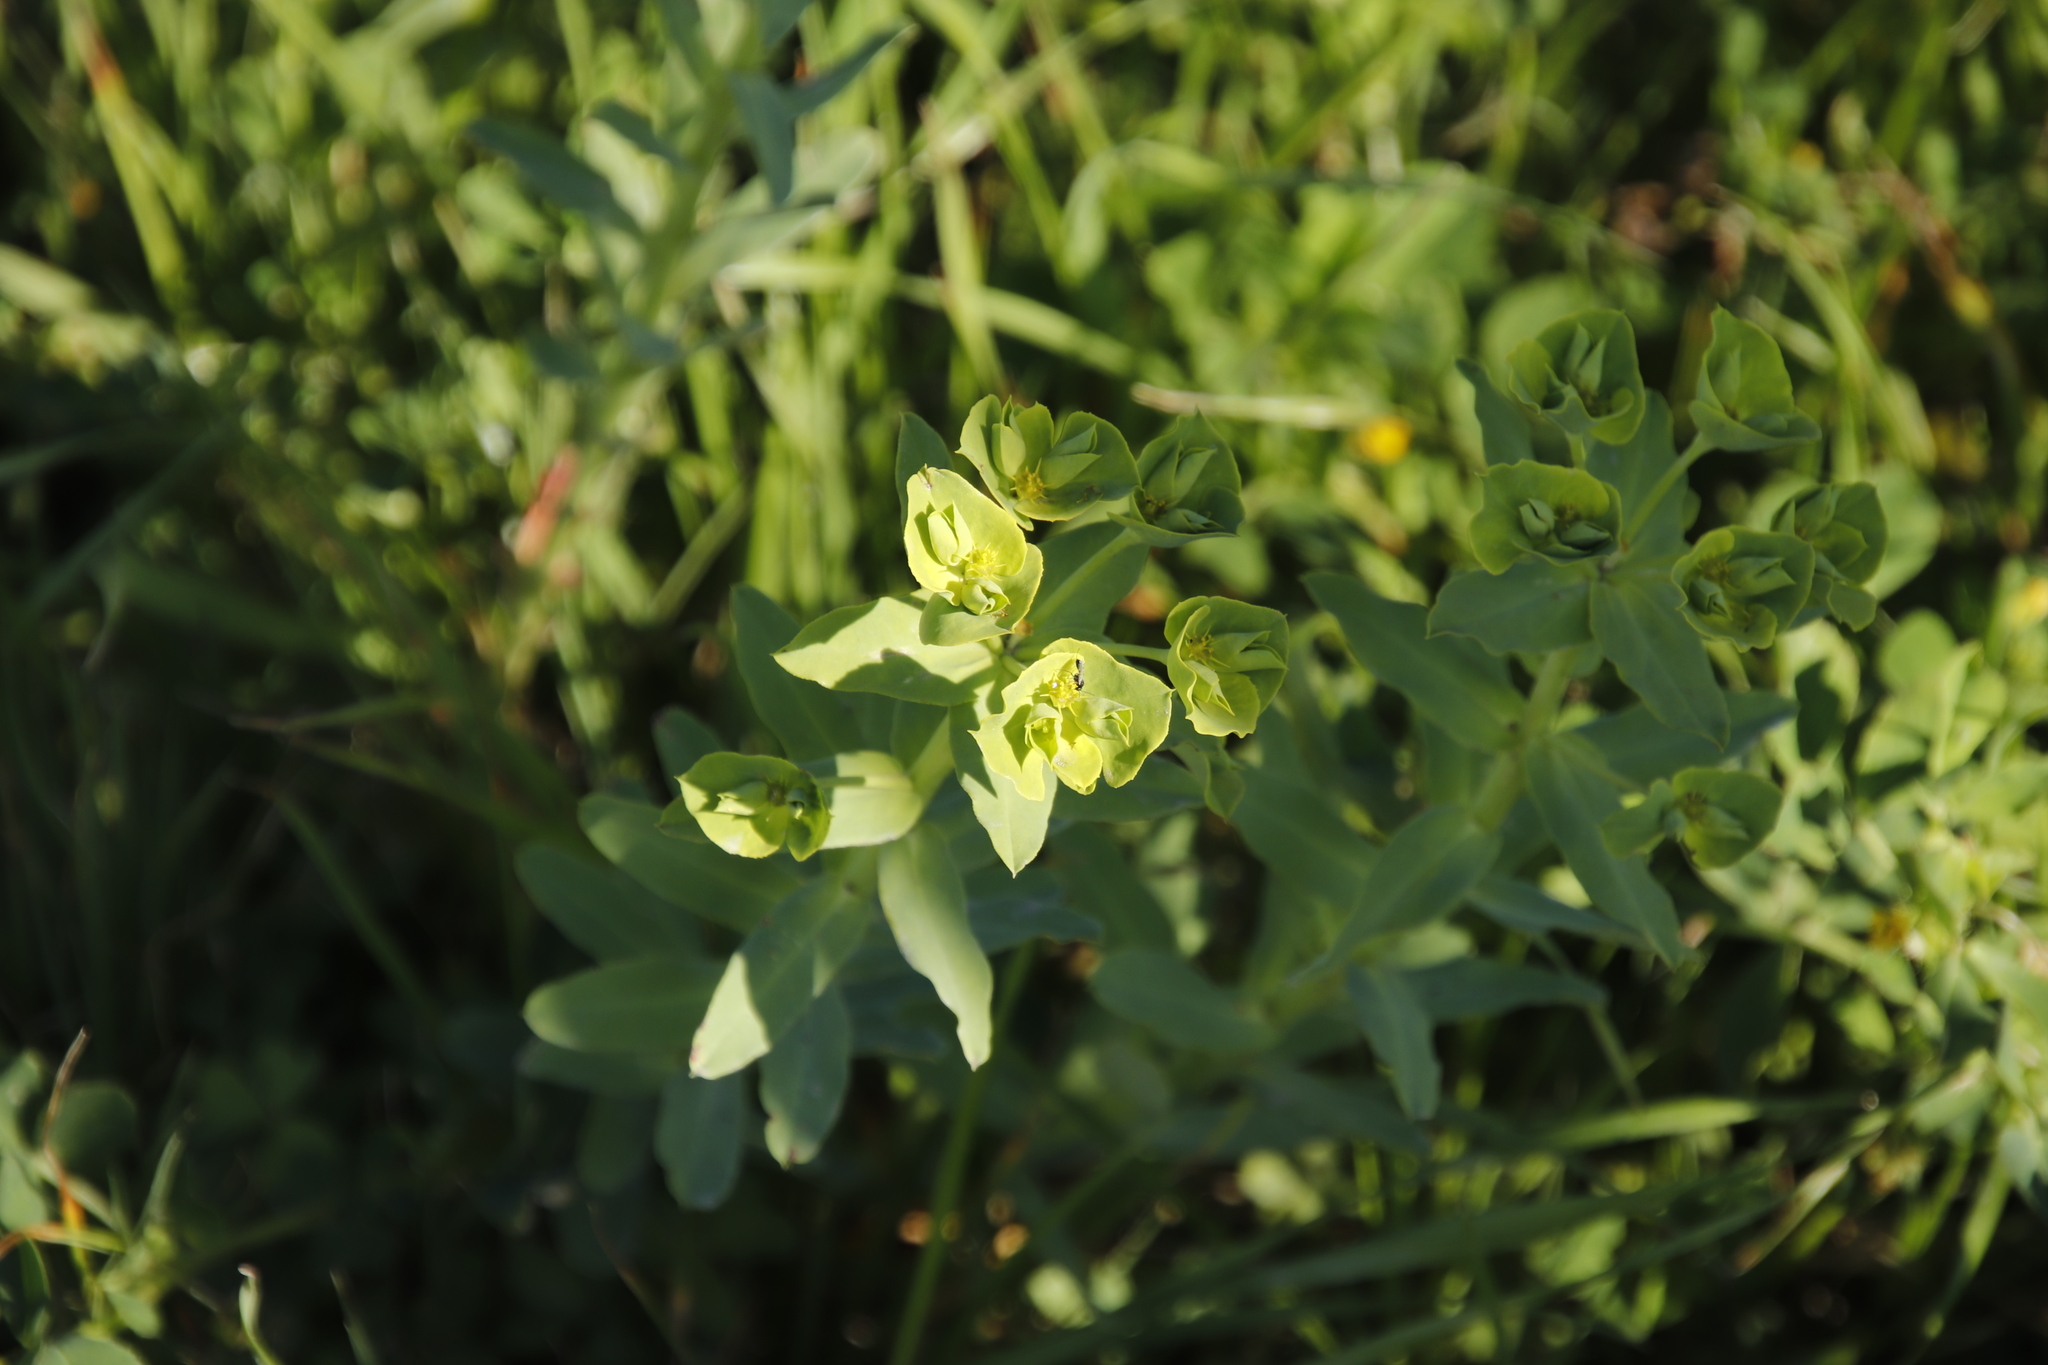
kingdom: Plantae
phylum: Tracheophyta
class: Magnoliopsida
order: Malpighiales
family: Euphorbiaceae
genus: Euphorbia
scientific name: Euphorbia terracina
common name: Geraldton carnation weed
